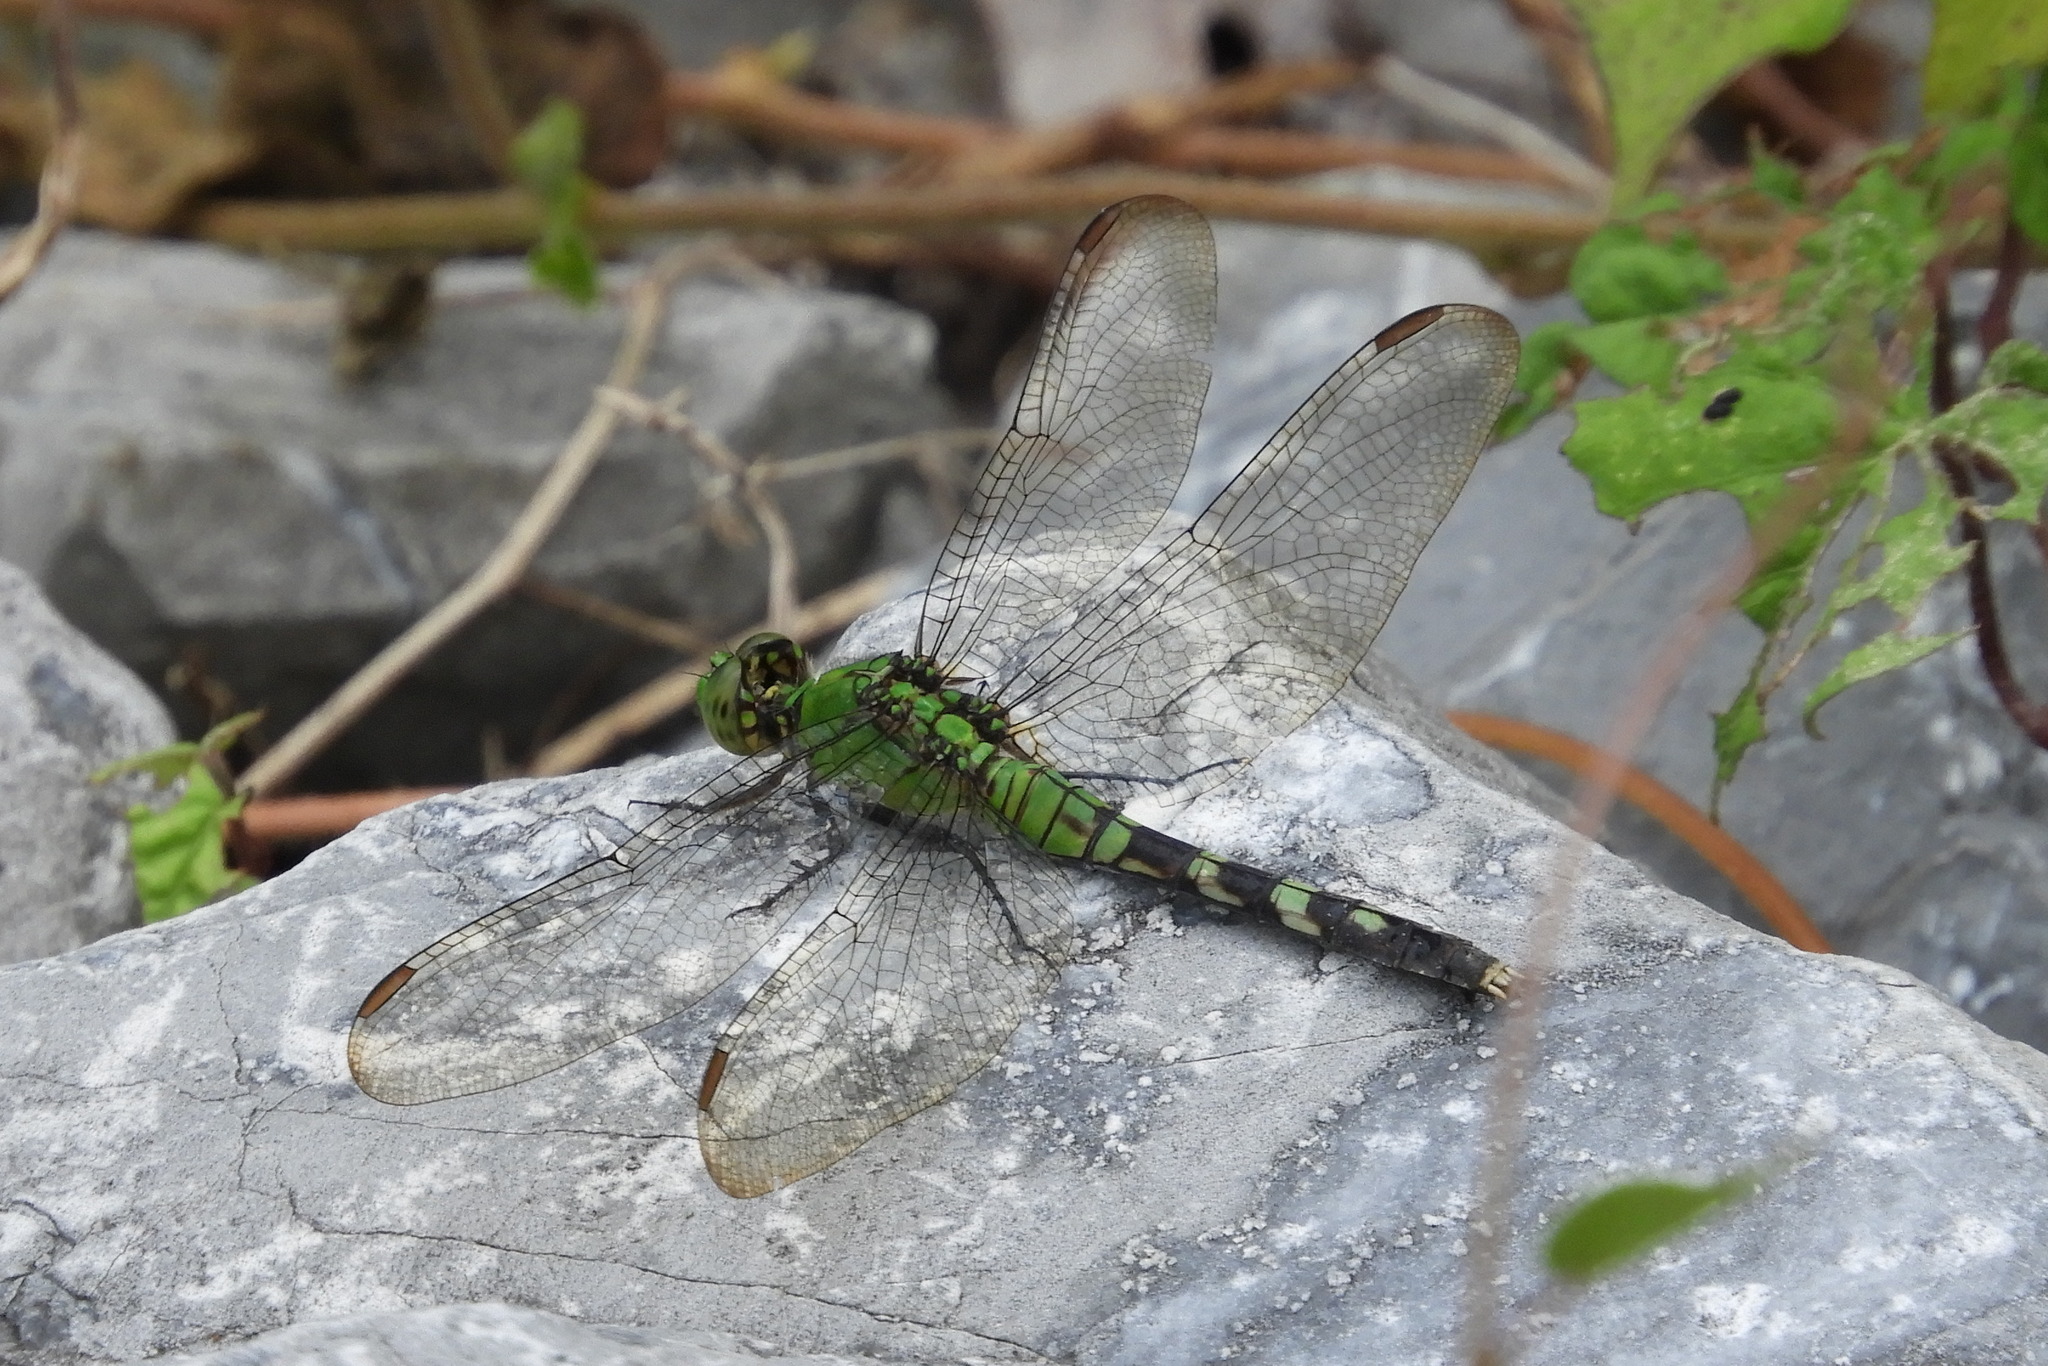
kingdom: Animalia
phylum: Arthropoda
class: Insecta
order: Odonata
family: Libellulidae
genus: Erythemis
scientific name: Erythemis simplicicollis
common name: Eastern pondhawk
